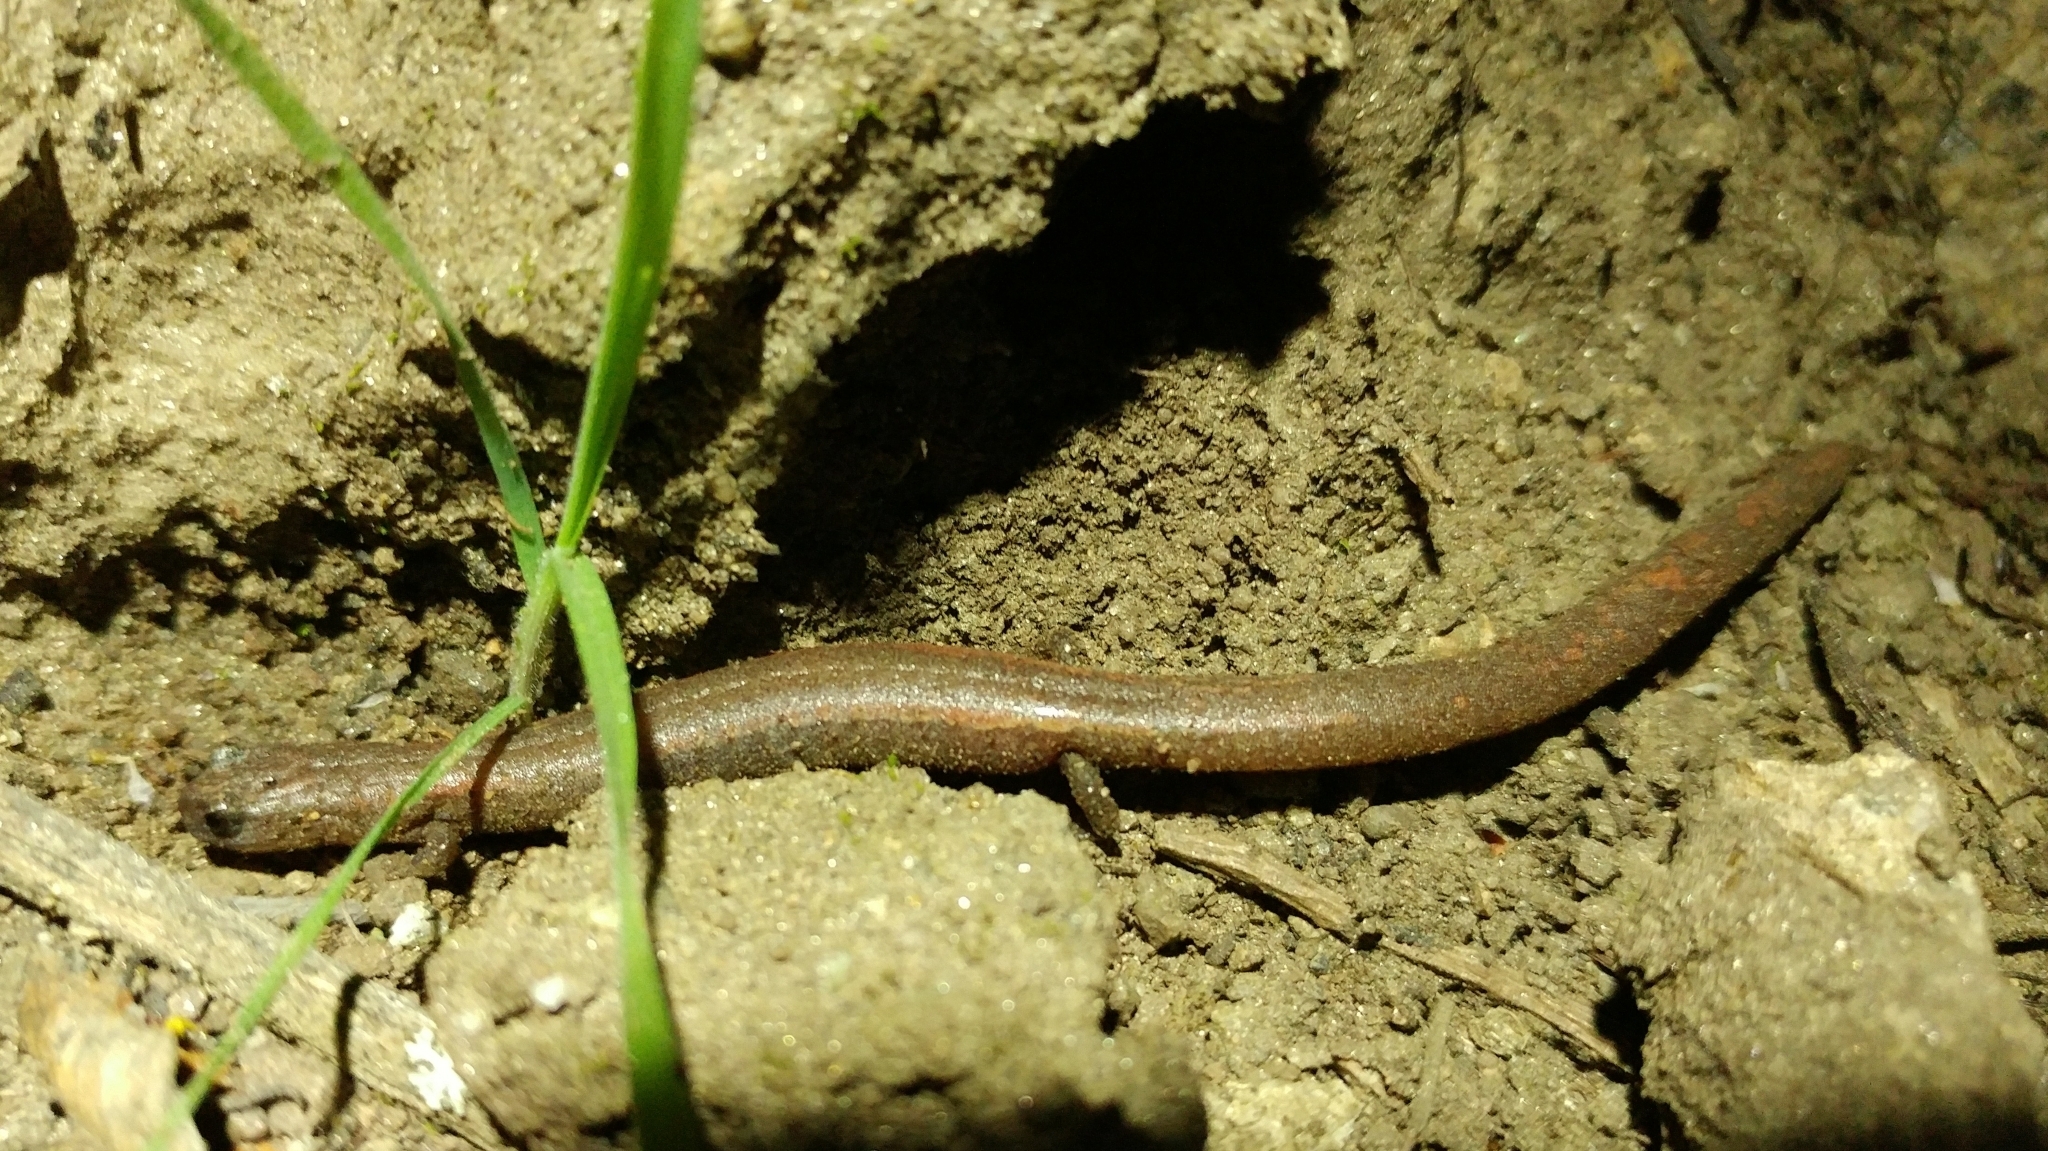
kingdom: Animalia
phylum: Chordata
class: Amphibia
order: Caudata
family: Plethodontidae
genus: Batrachoseps
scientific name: Batrachoseps major
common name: Garden slender salamander
